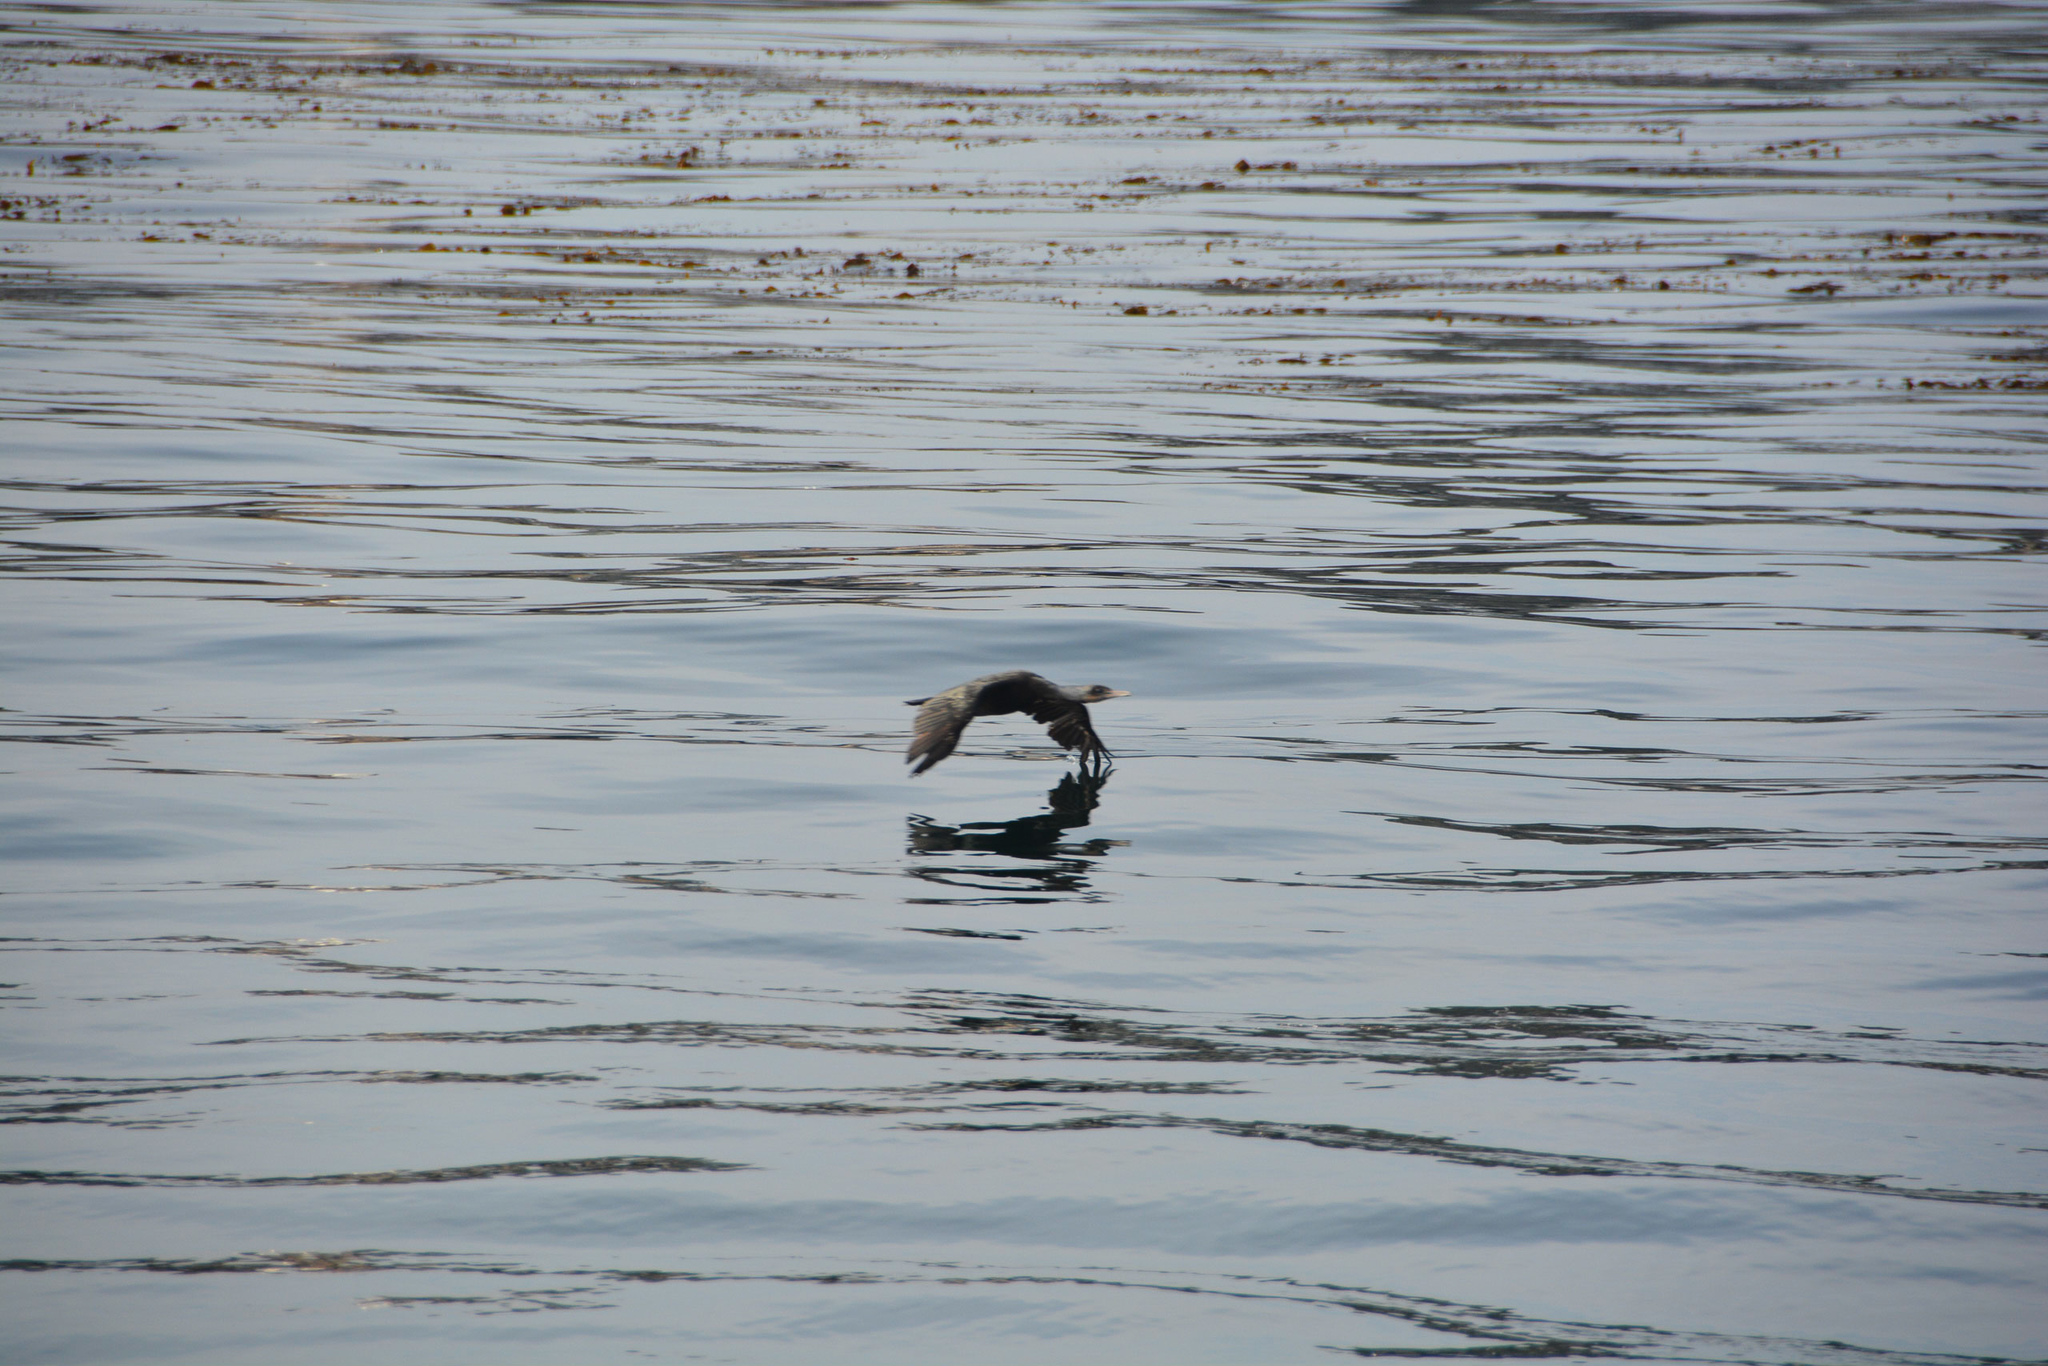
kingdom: Animalia
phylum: Chordata
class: Aves
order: Suliformes
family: Phalacrocoracidae
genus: Urile
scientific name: Urile penicillatus
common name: Brandt's cormorant
